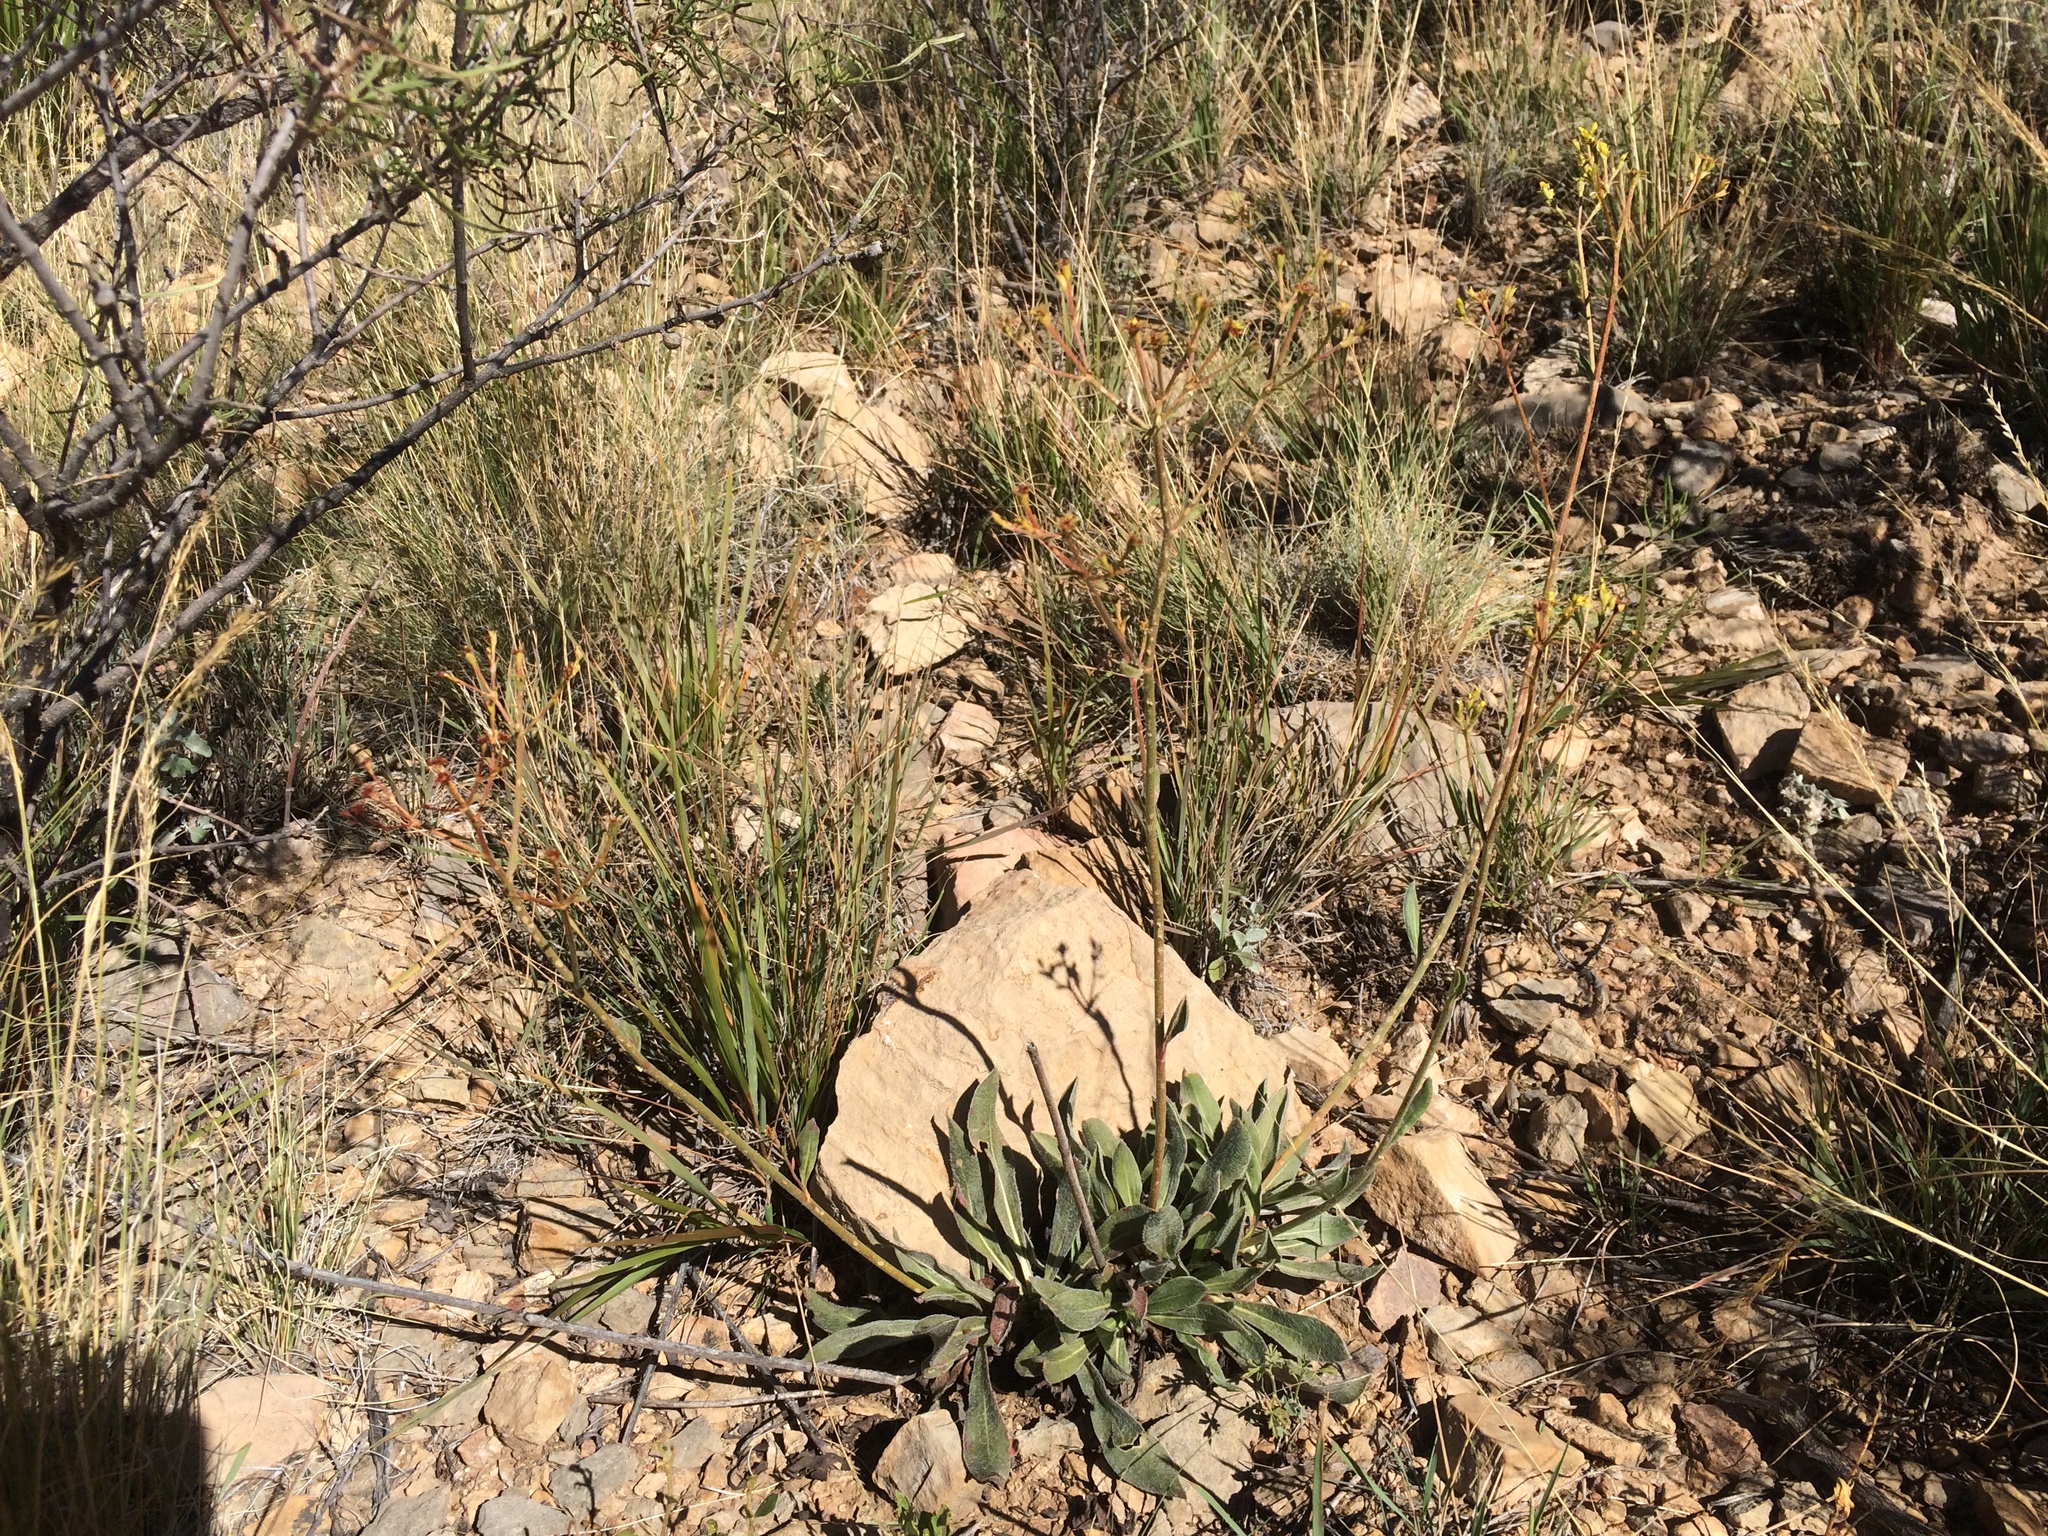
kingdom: Plantae
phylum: Tracheophyta
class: Magnoliopsida
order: Caryophyllales
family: Polygonaceae
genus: Eriogonum
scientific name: Eriogonum hieraciifolium
